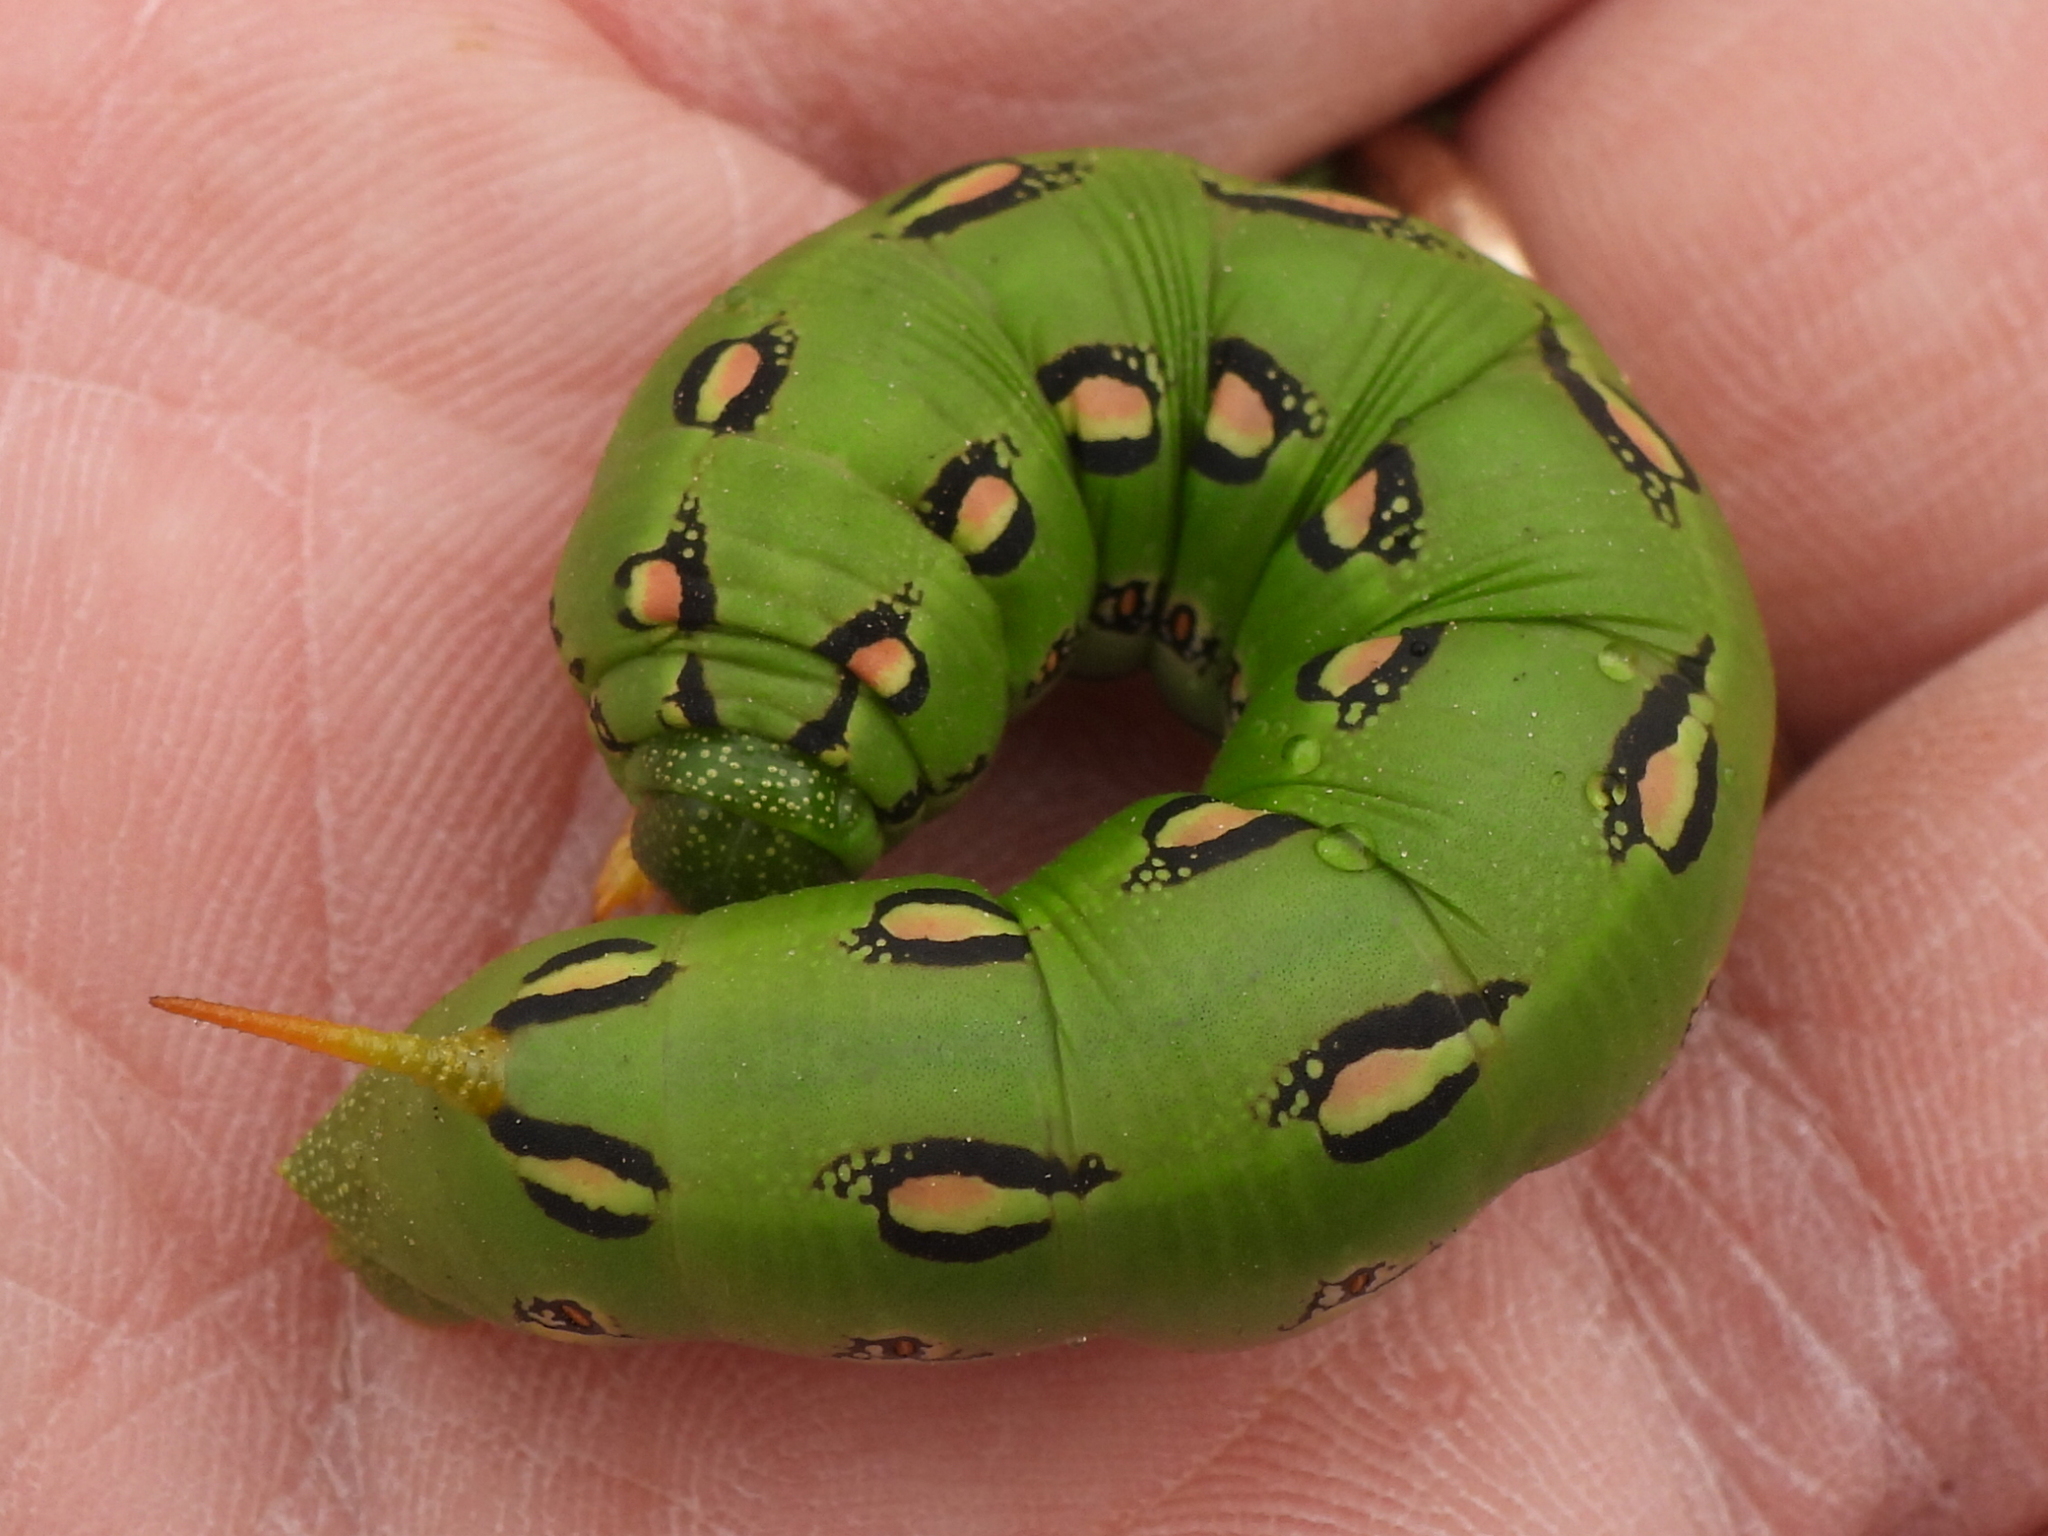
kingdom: Animalia
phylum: Arthropoda
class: Insecta
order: Lepidoptera
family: Sphingidae
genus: Hyles
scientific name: Hyles lineata
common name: White-lined sphinx
